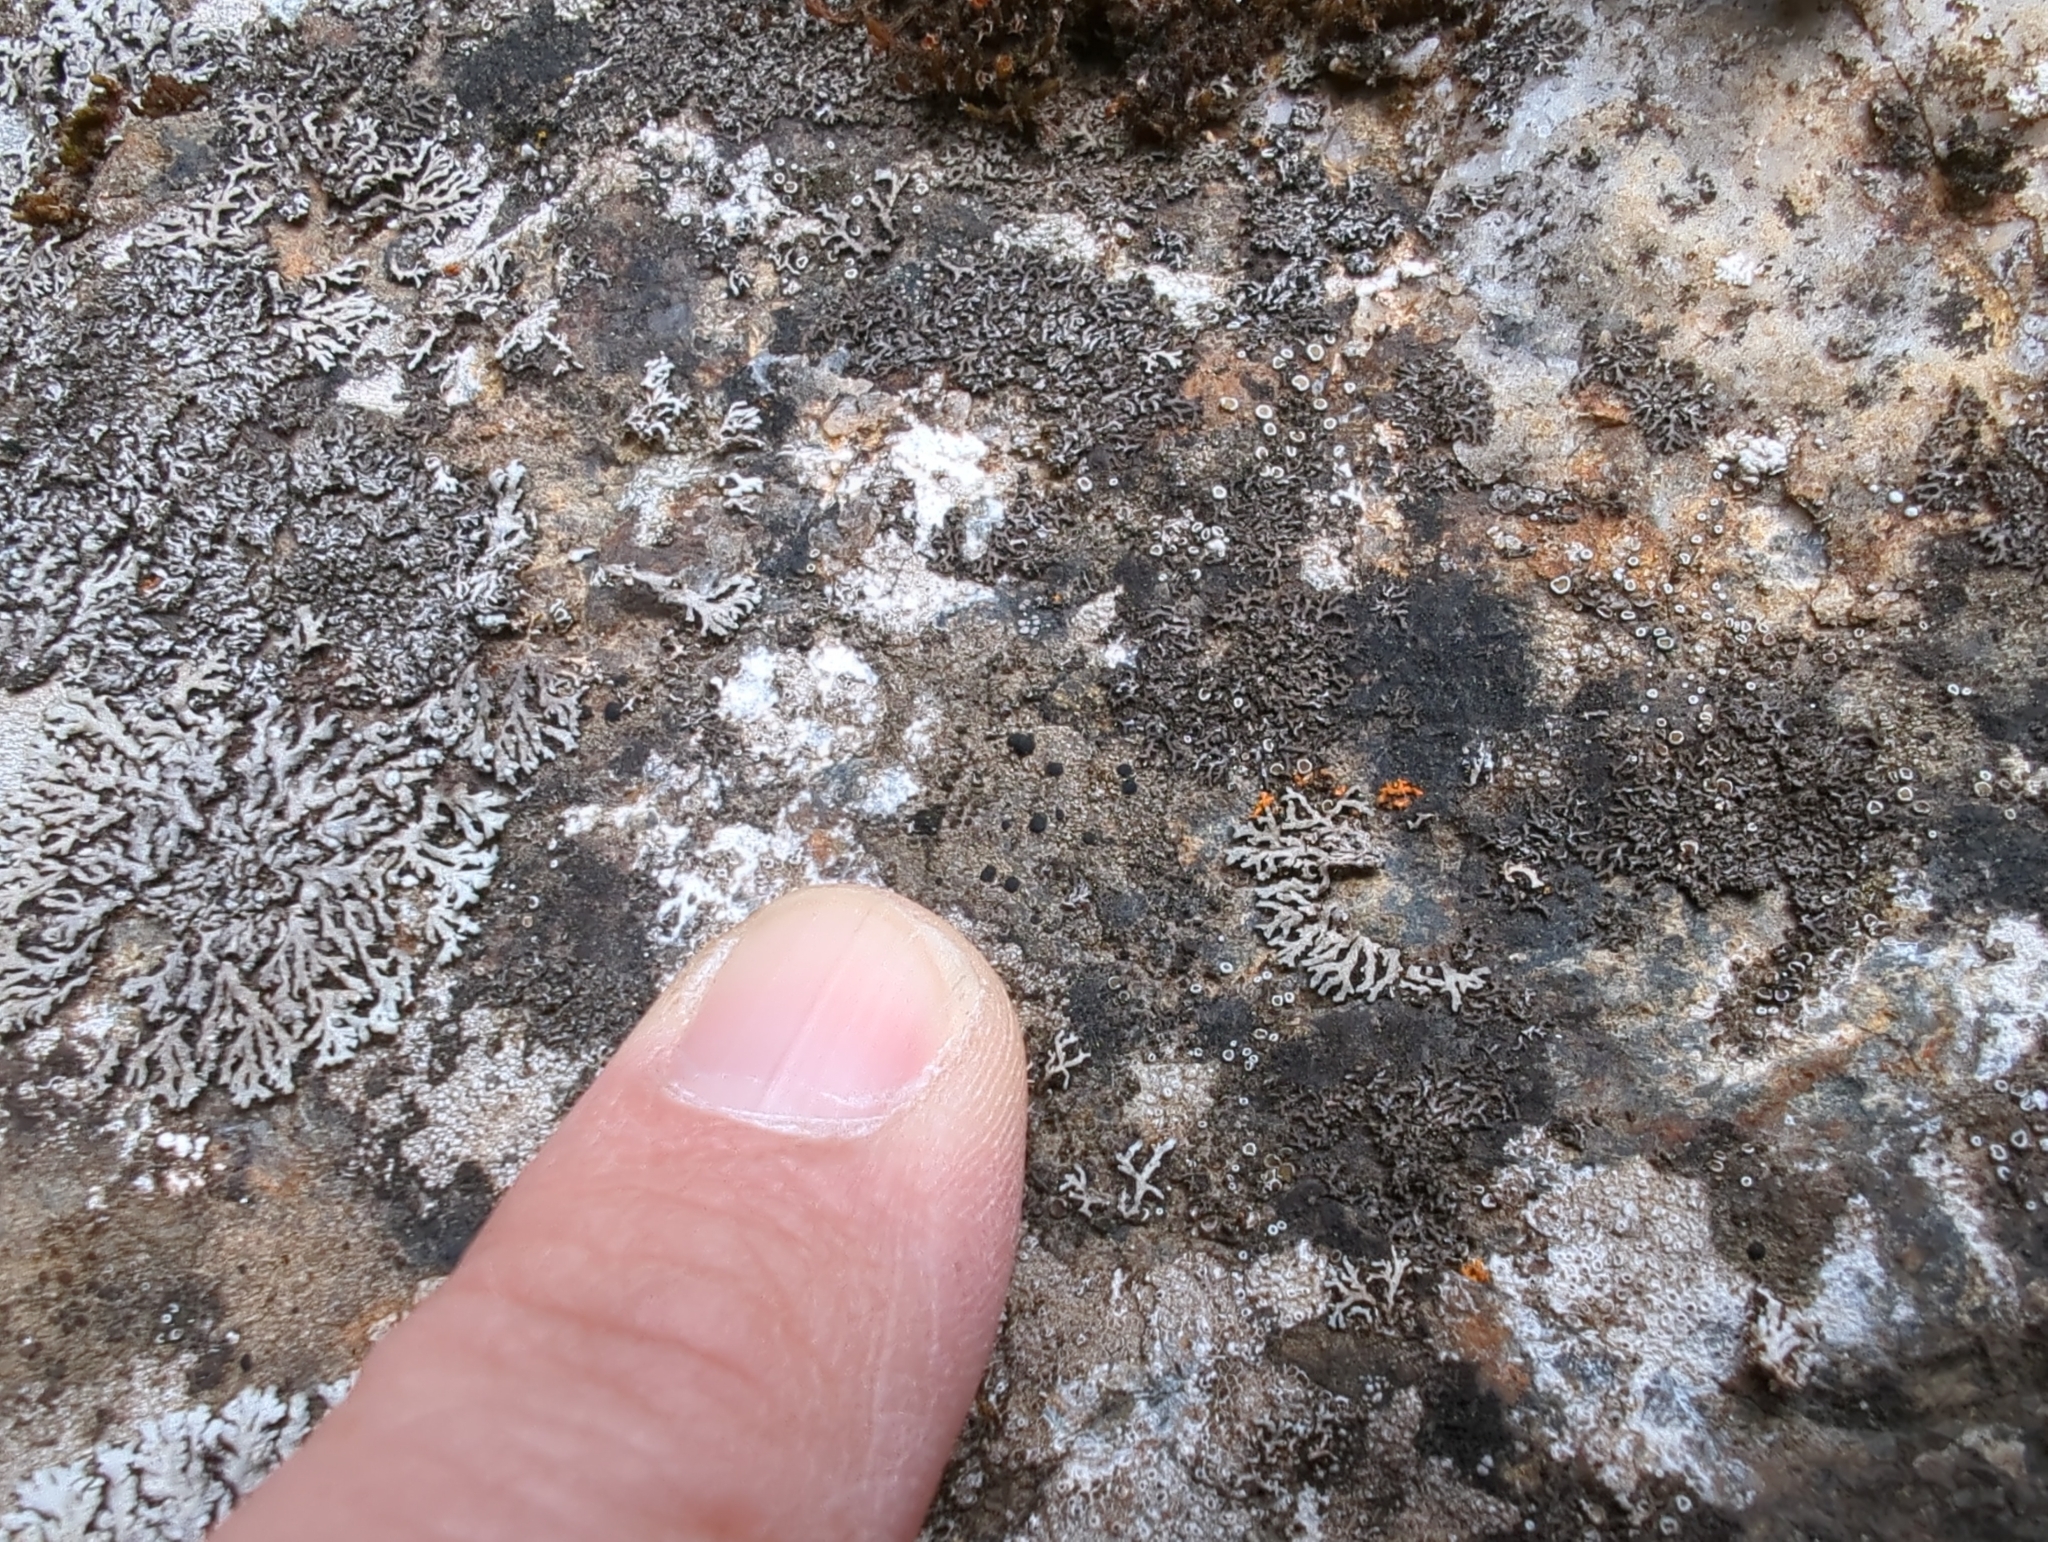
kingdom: Fungi
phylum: Ascomycota
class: Lecanoromycetes
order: Lecanorales
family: Lecanoraceae
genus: Lecidella
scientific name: Lecidella stigmatea
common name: Limestone disc lichen
